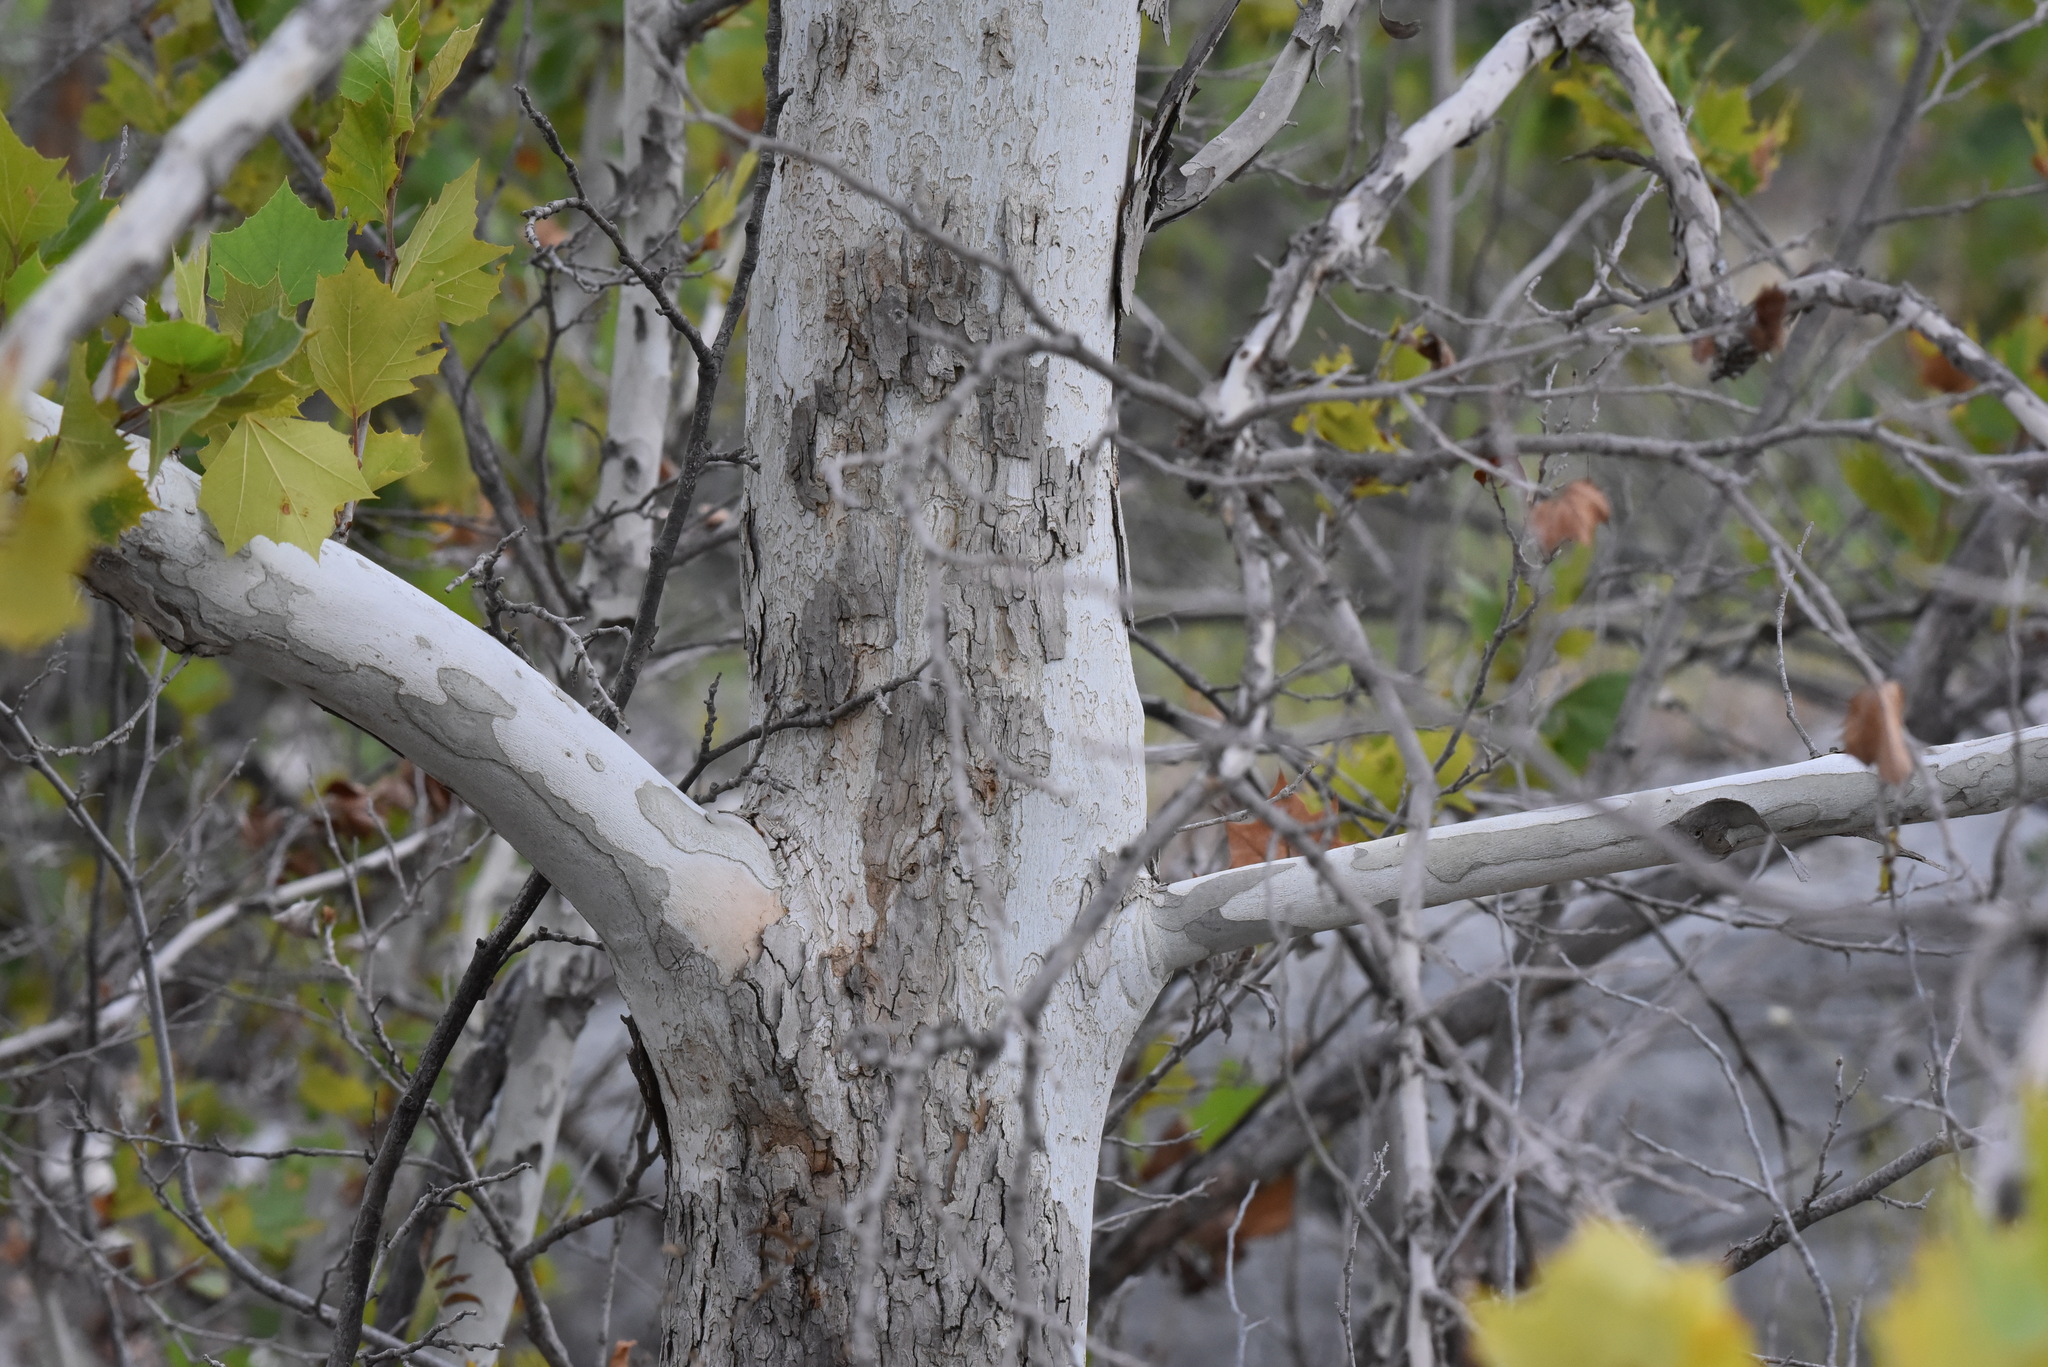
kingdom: Plantae
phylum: Tracheophyta
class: Magnoliopsida
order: Proteales
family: Platanaceae
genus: Platanus
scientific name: Platanus occidentalis
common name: American sycamore
